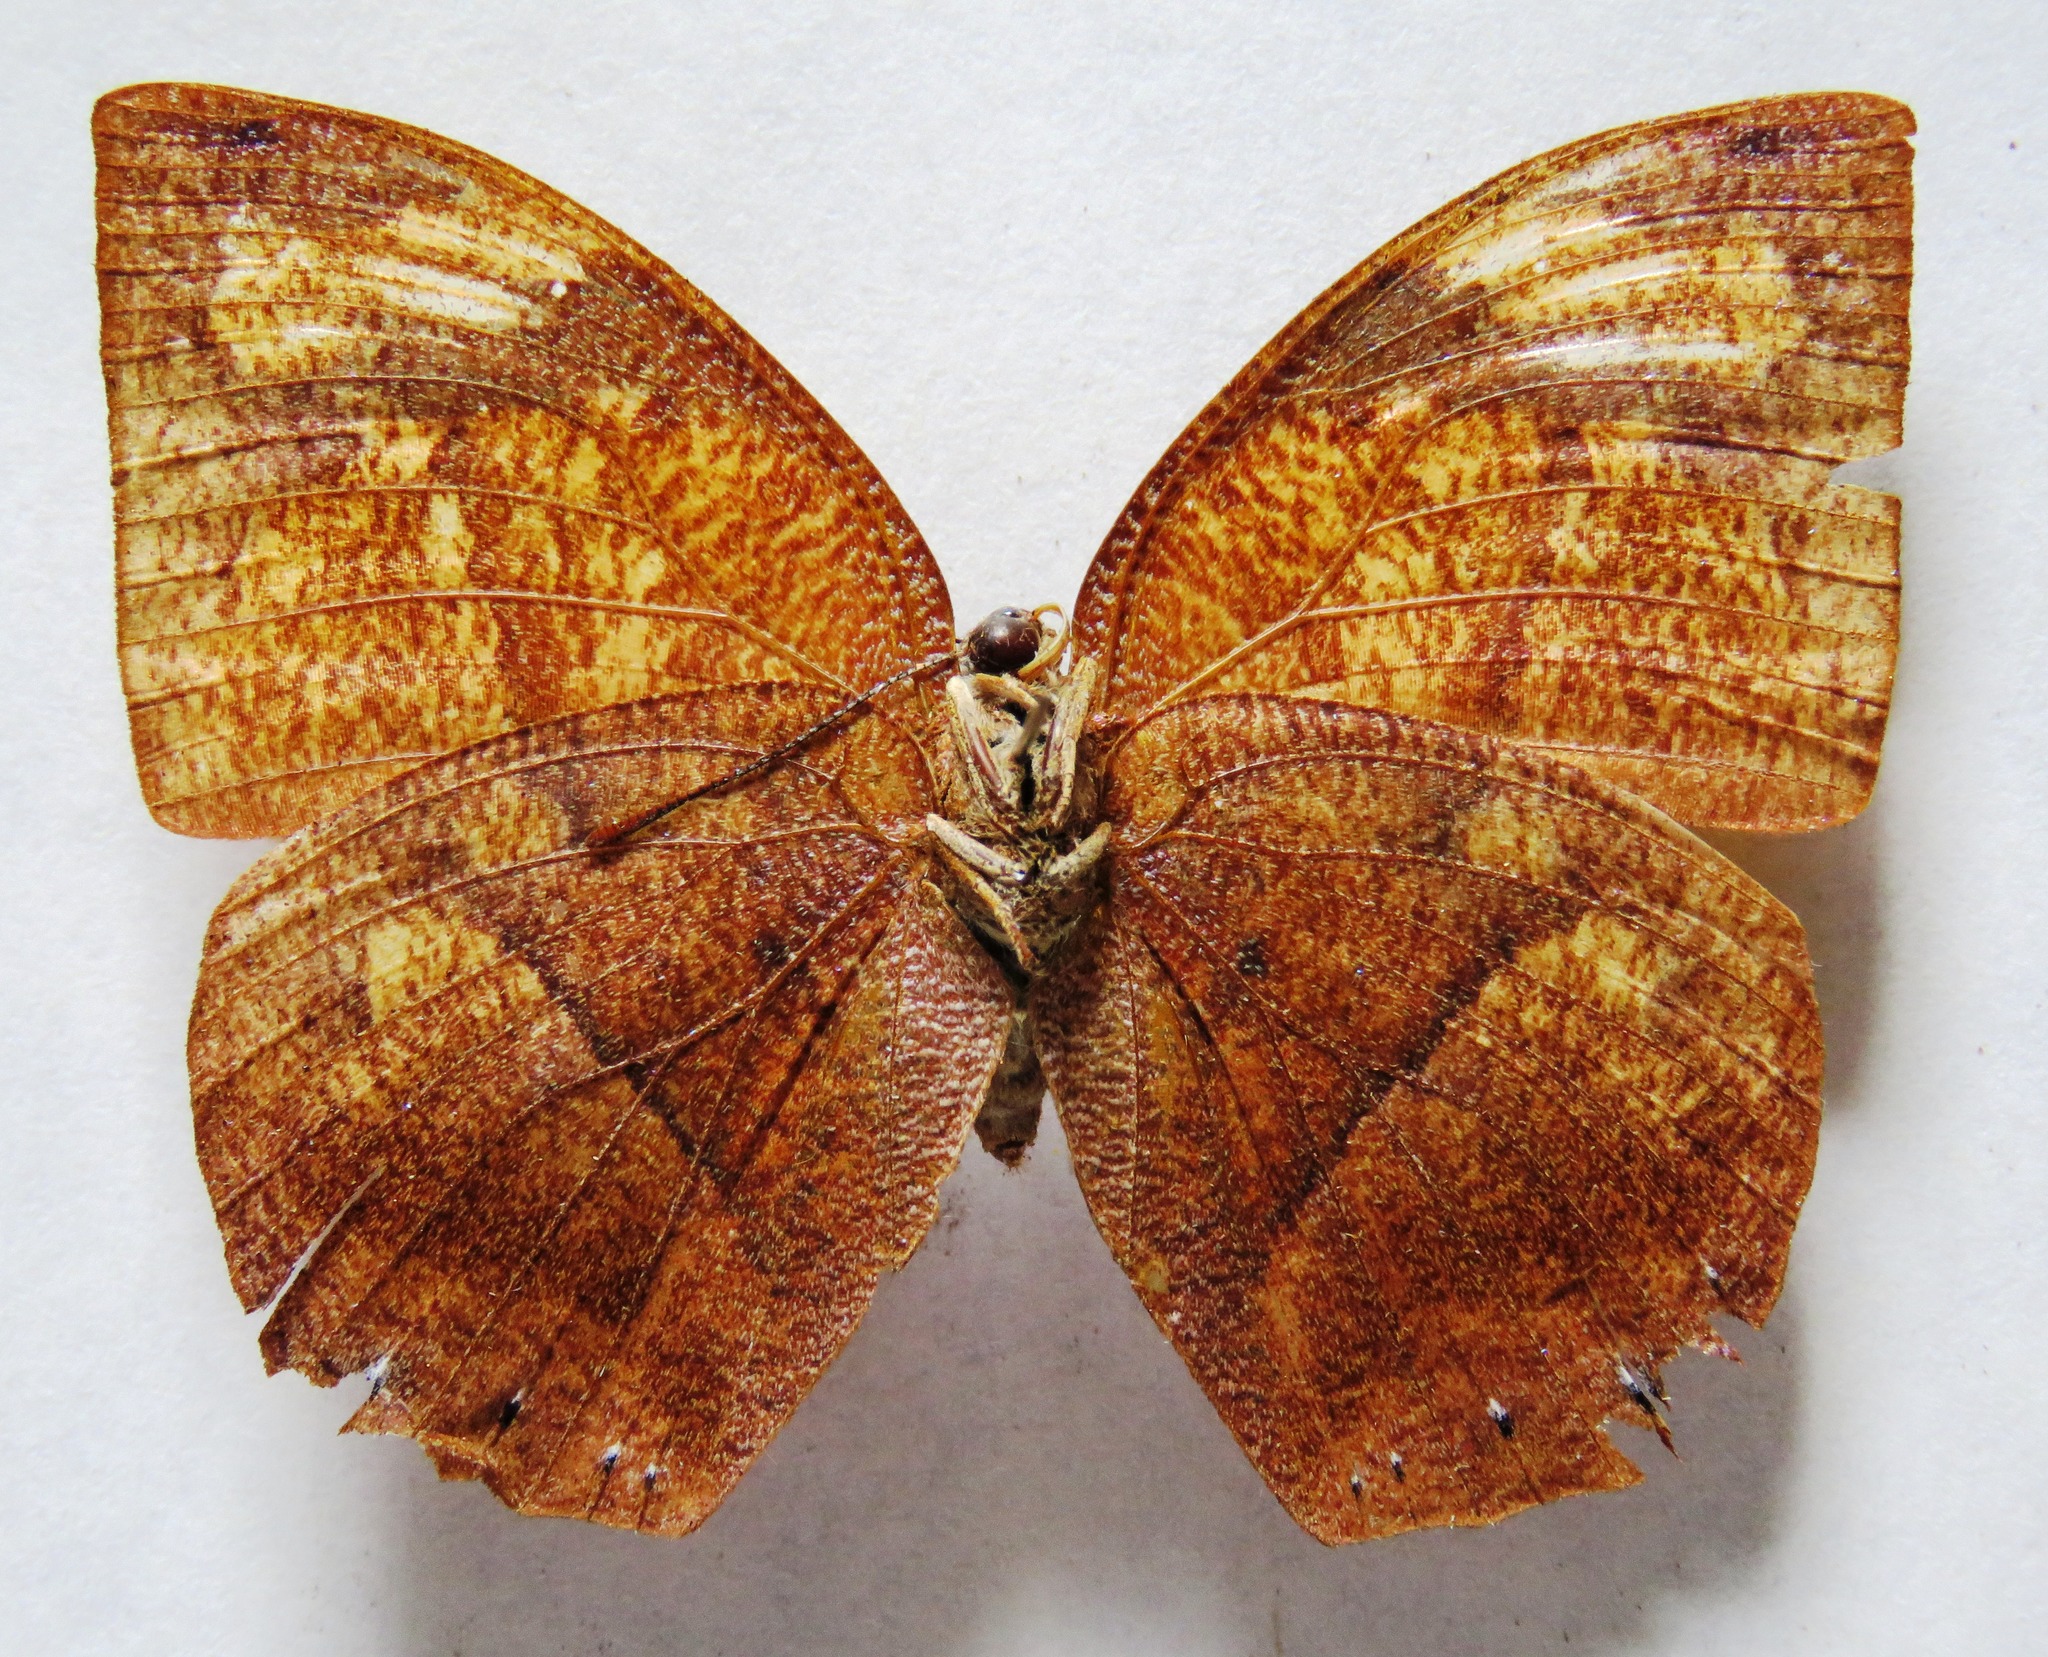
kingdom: Animalia
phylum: Arthropoda
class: Insecta
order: Lepidoptera
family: Nymphalidae
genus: Fountainea
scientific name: Fountainea
